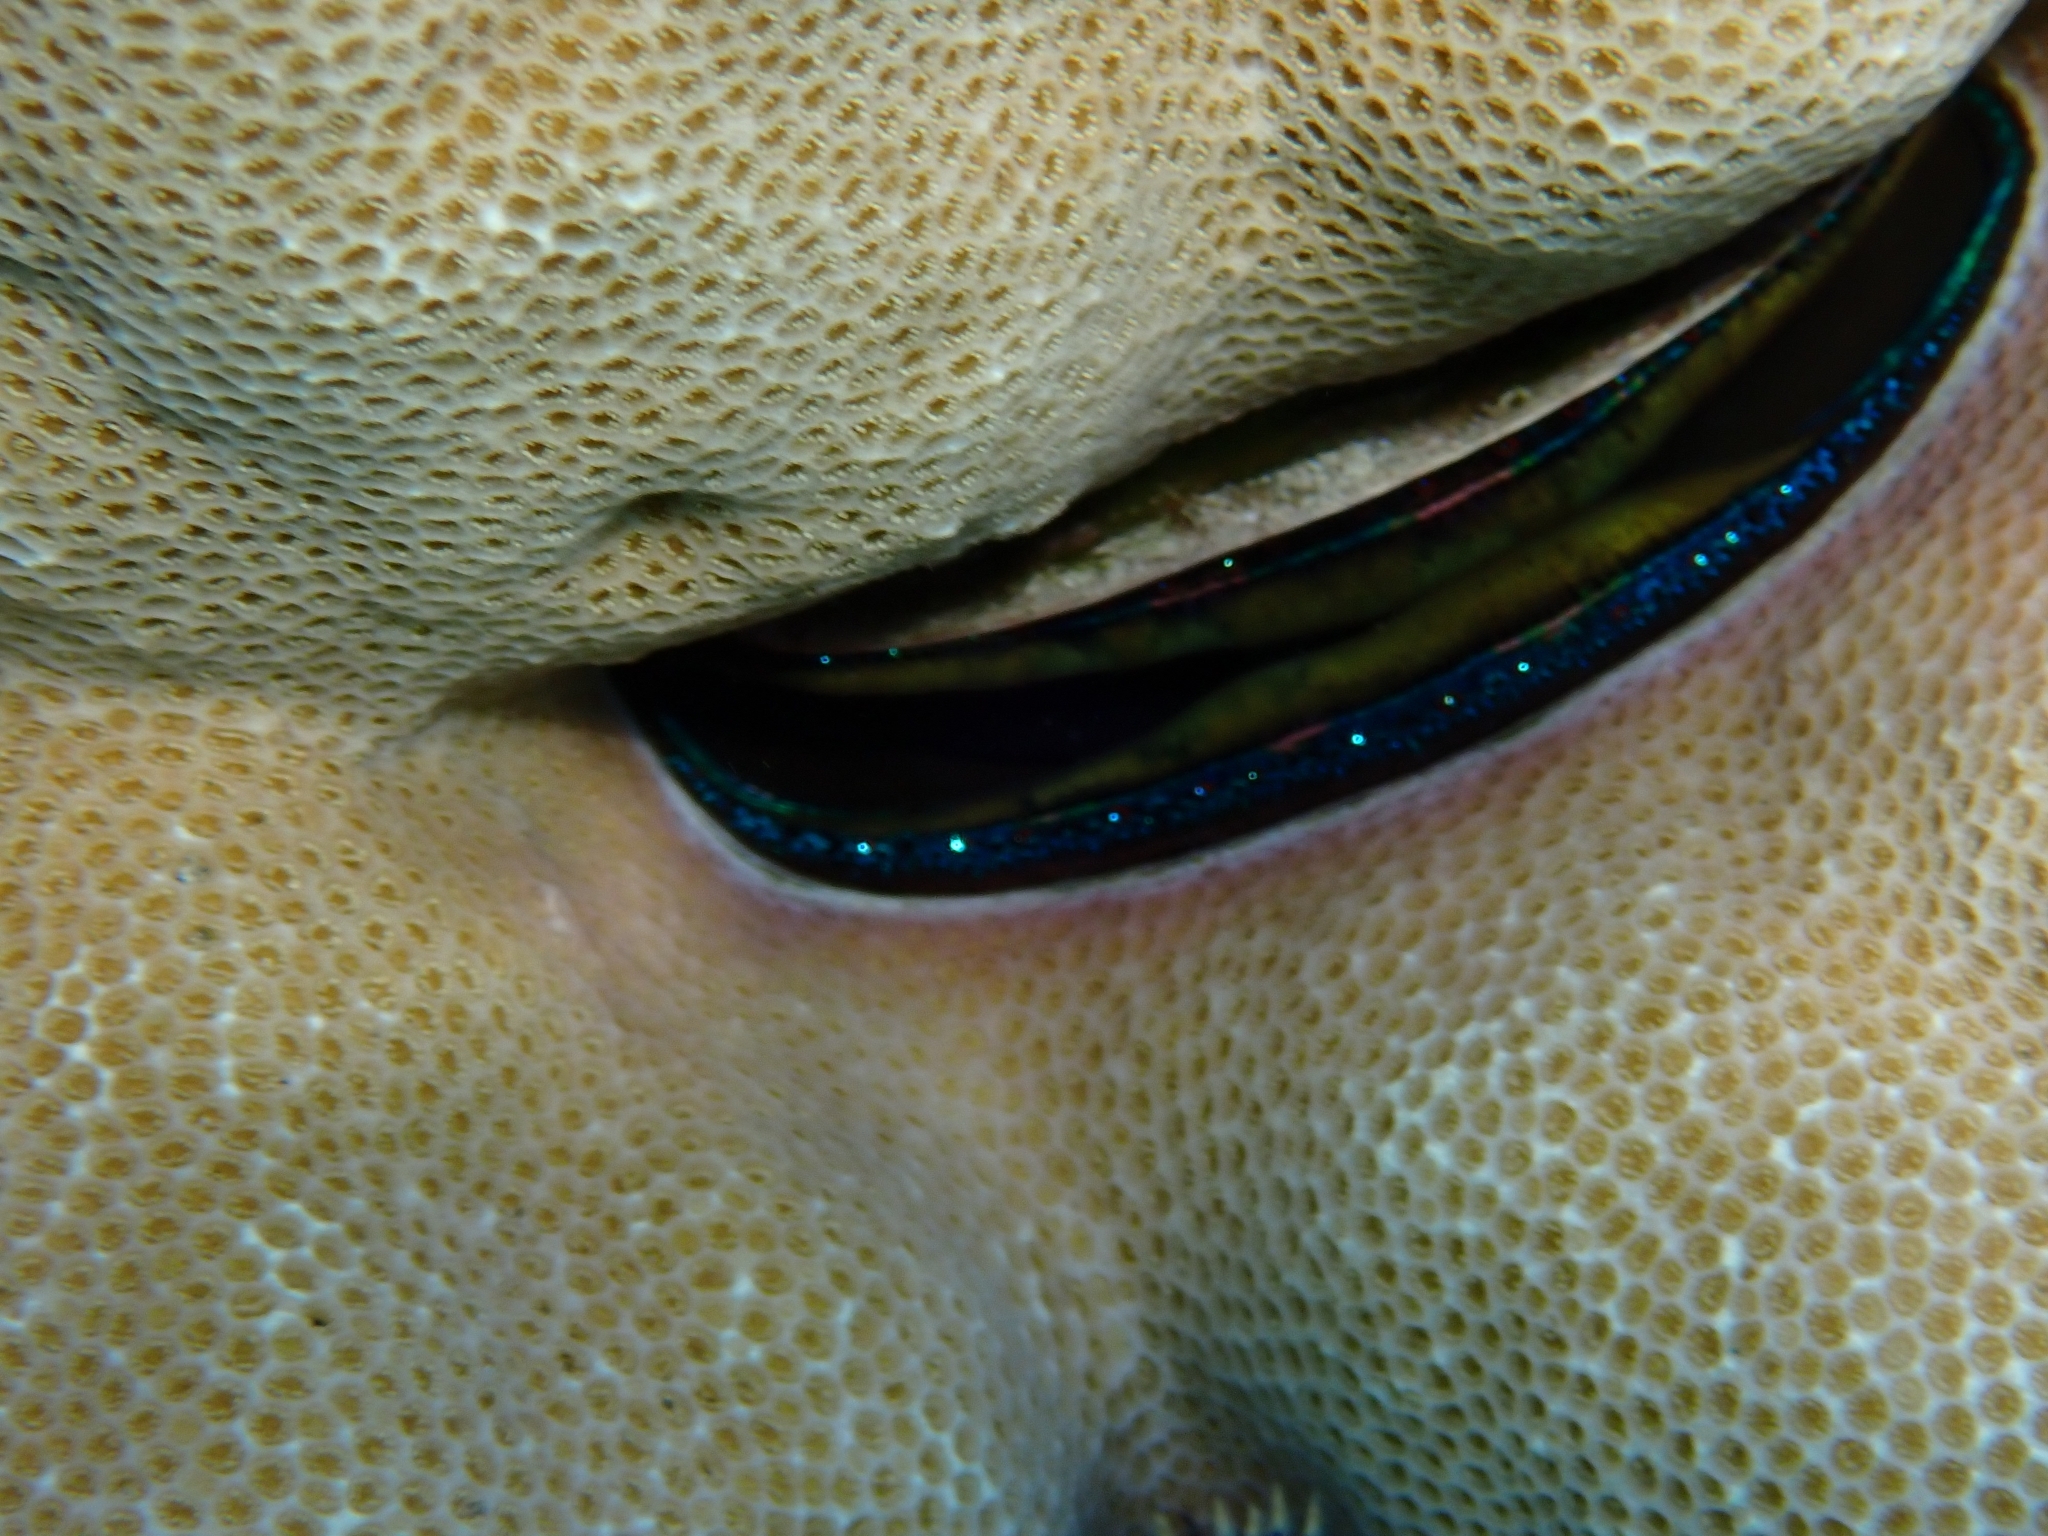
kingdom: Animalia
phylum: Mollusca
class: Bivalvia
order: Pectinida
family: Pectinidae
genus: Pedum
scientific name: Pedum spondyloideum
